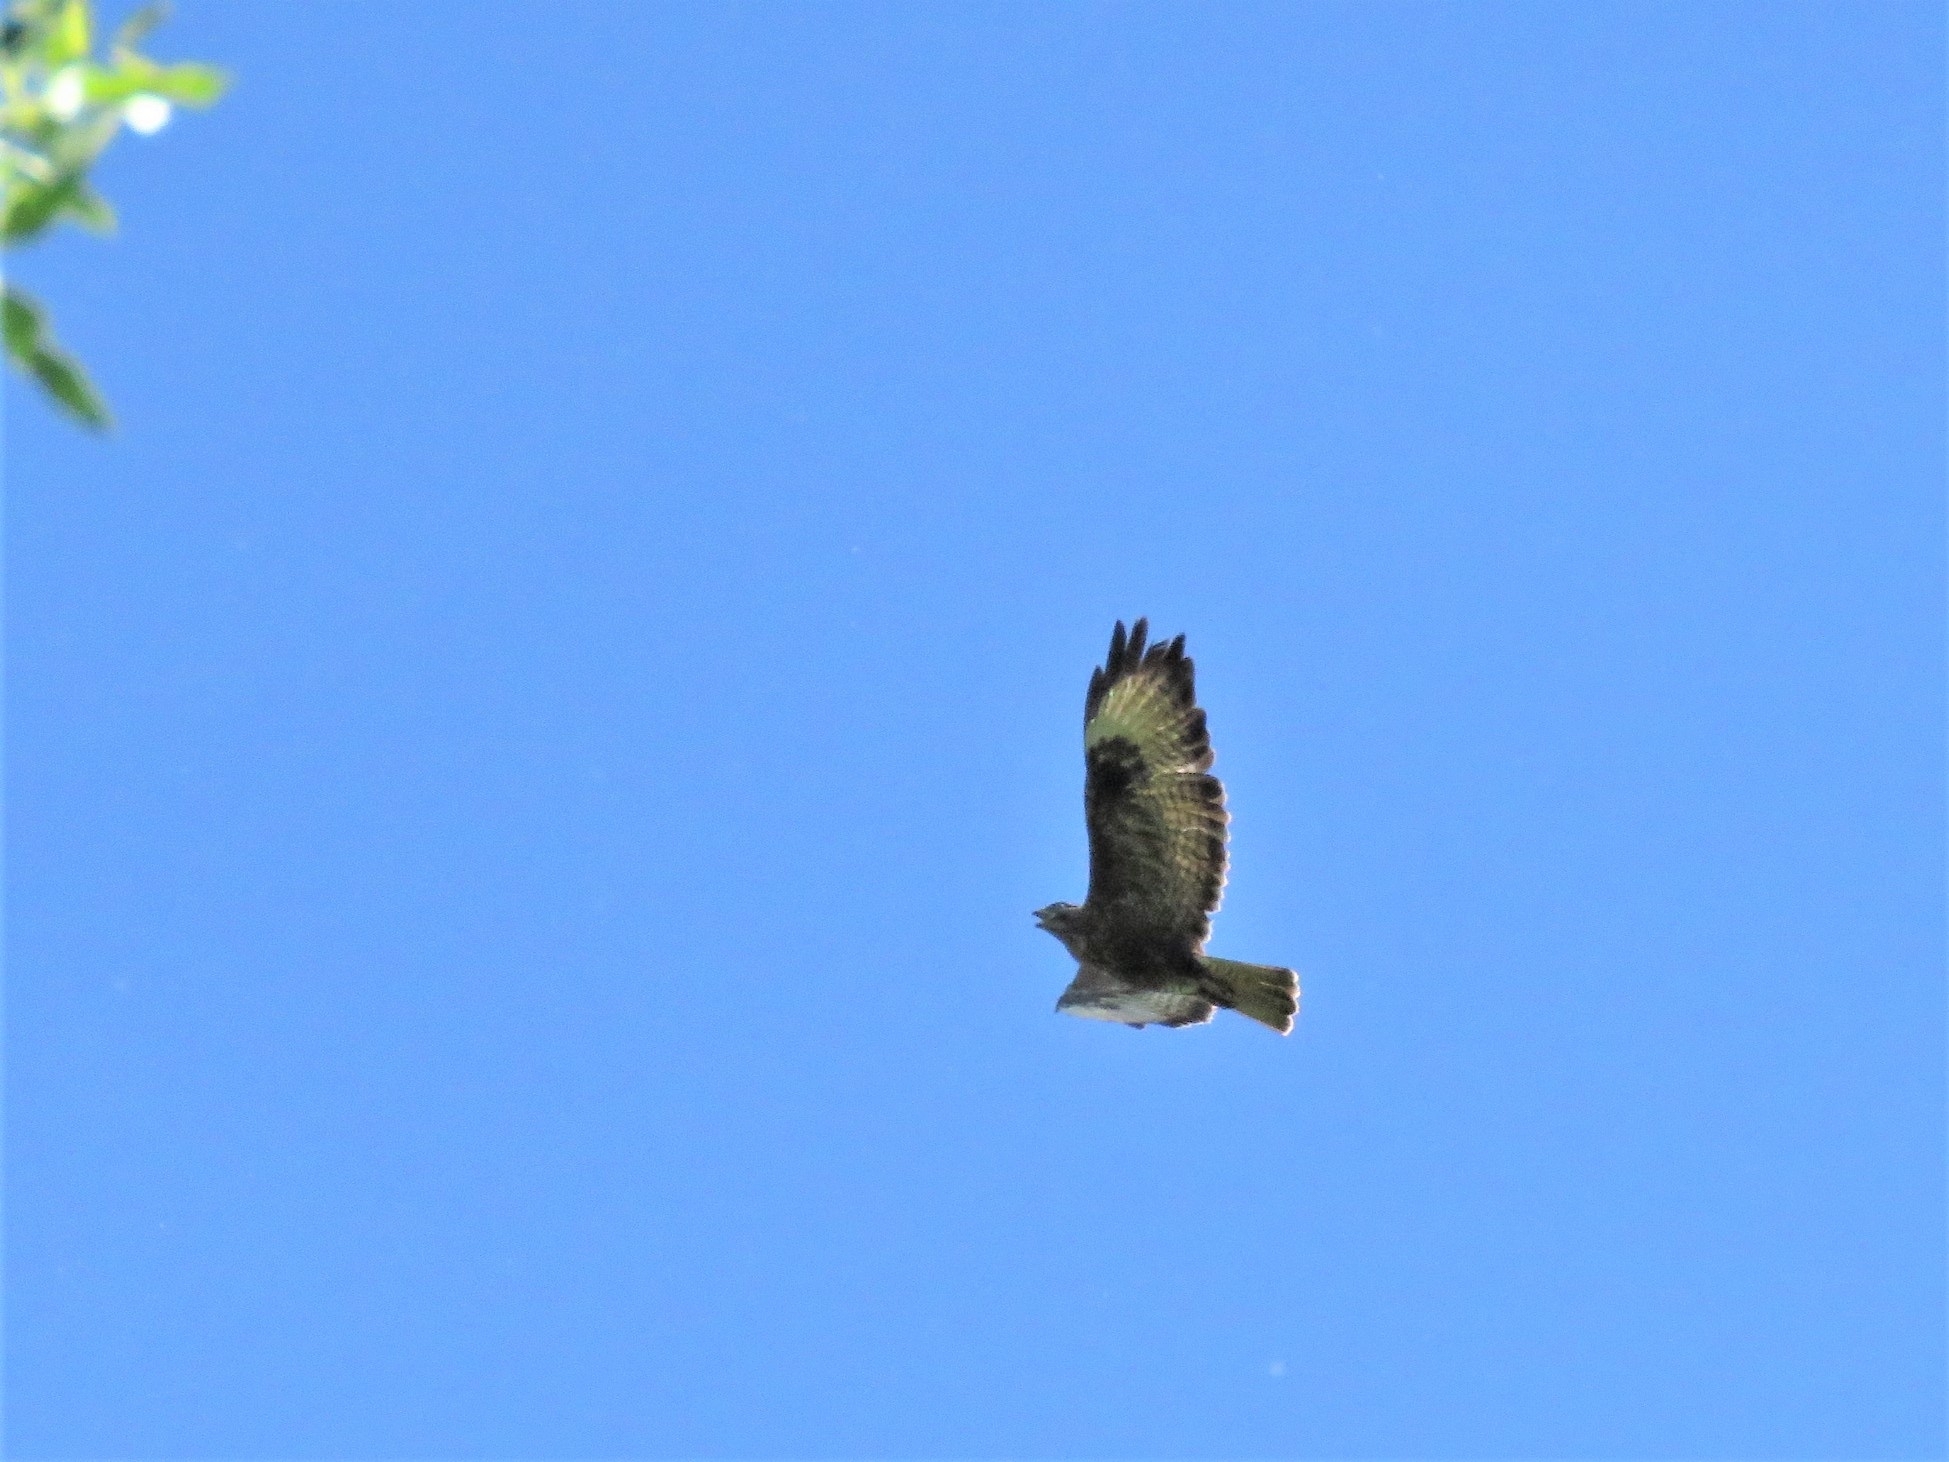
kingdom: Animalia
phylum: Chordata
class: Aves
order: Accipitriformes
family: Accipitridae
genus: Buteo
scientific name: Buteo buteo
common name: Common buzzard
